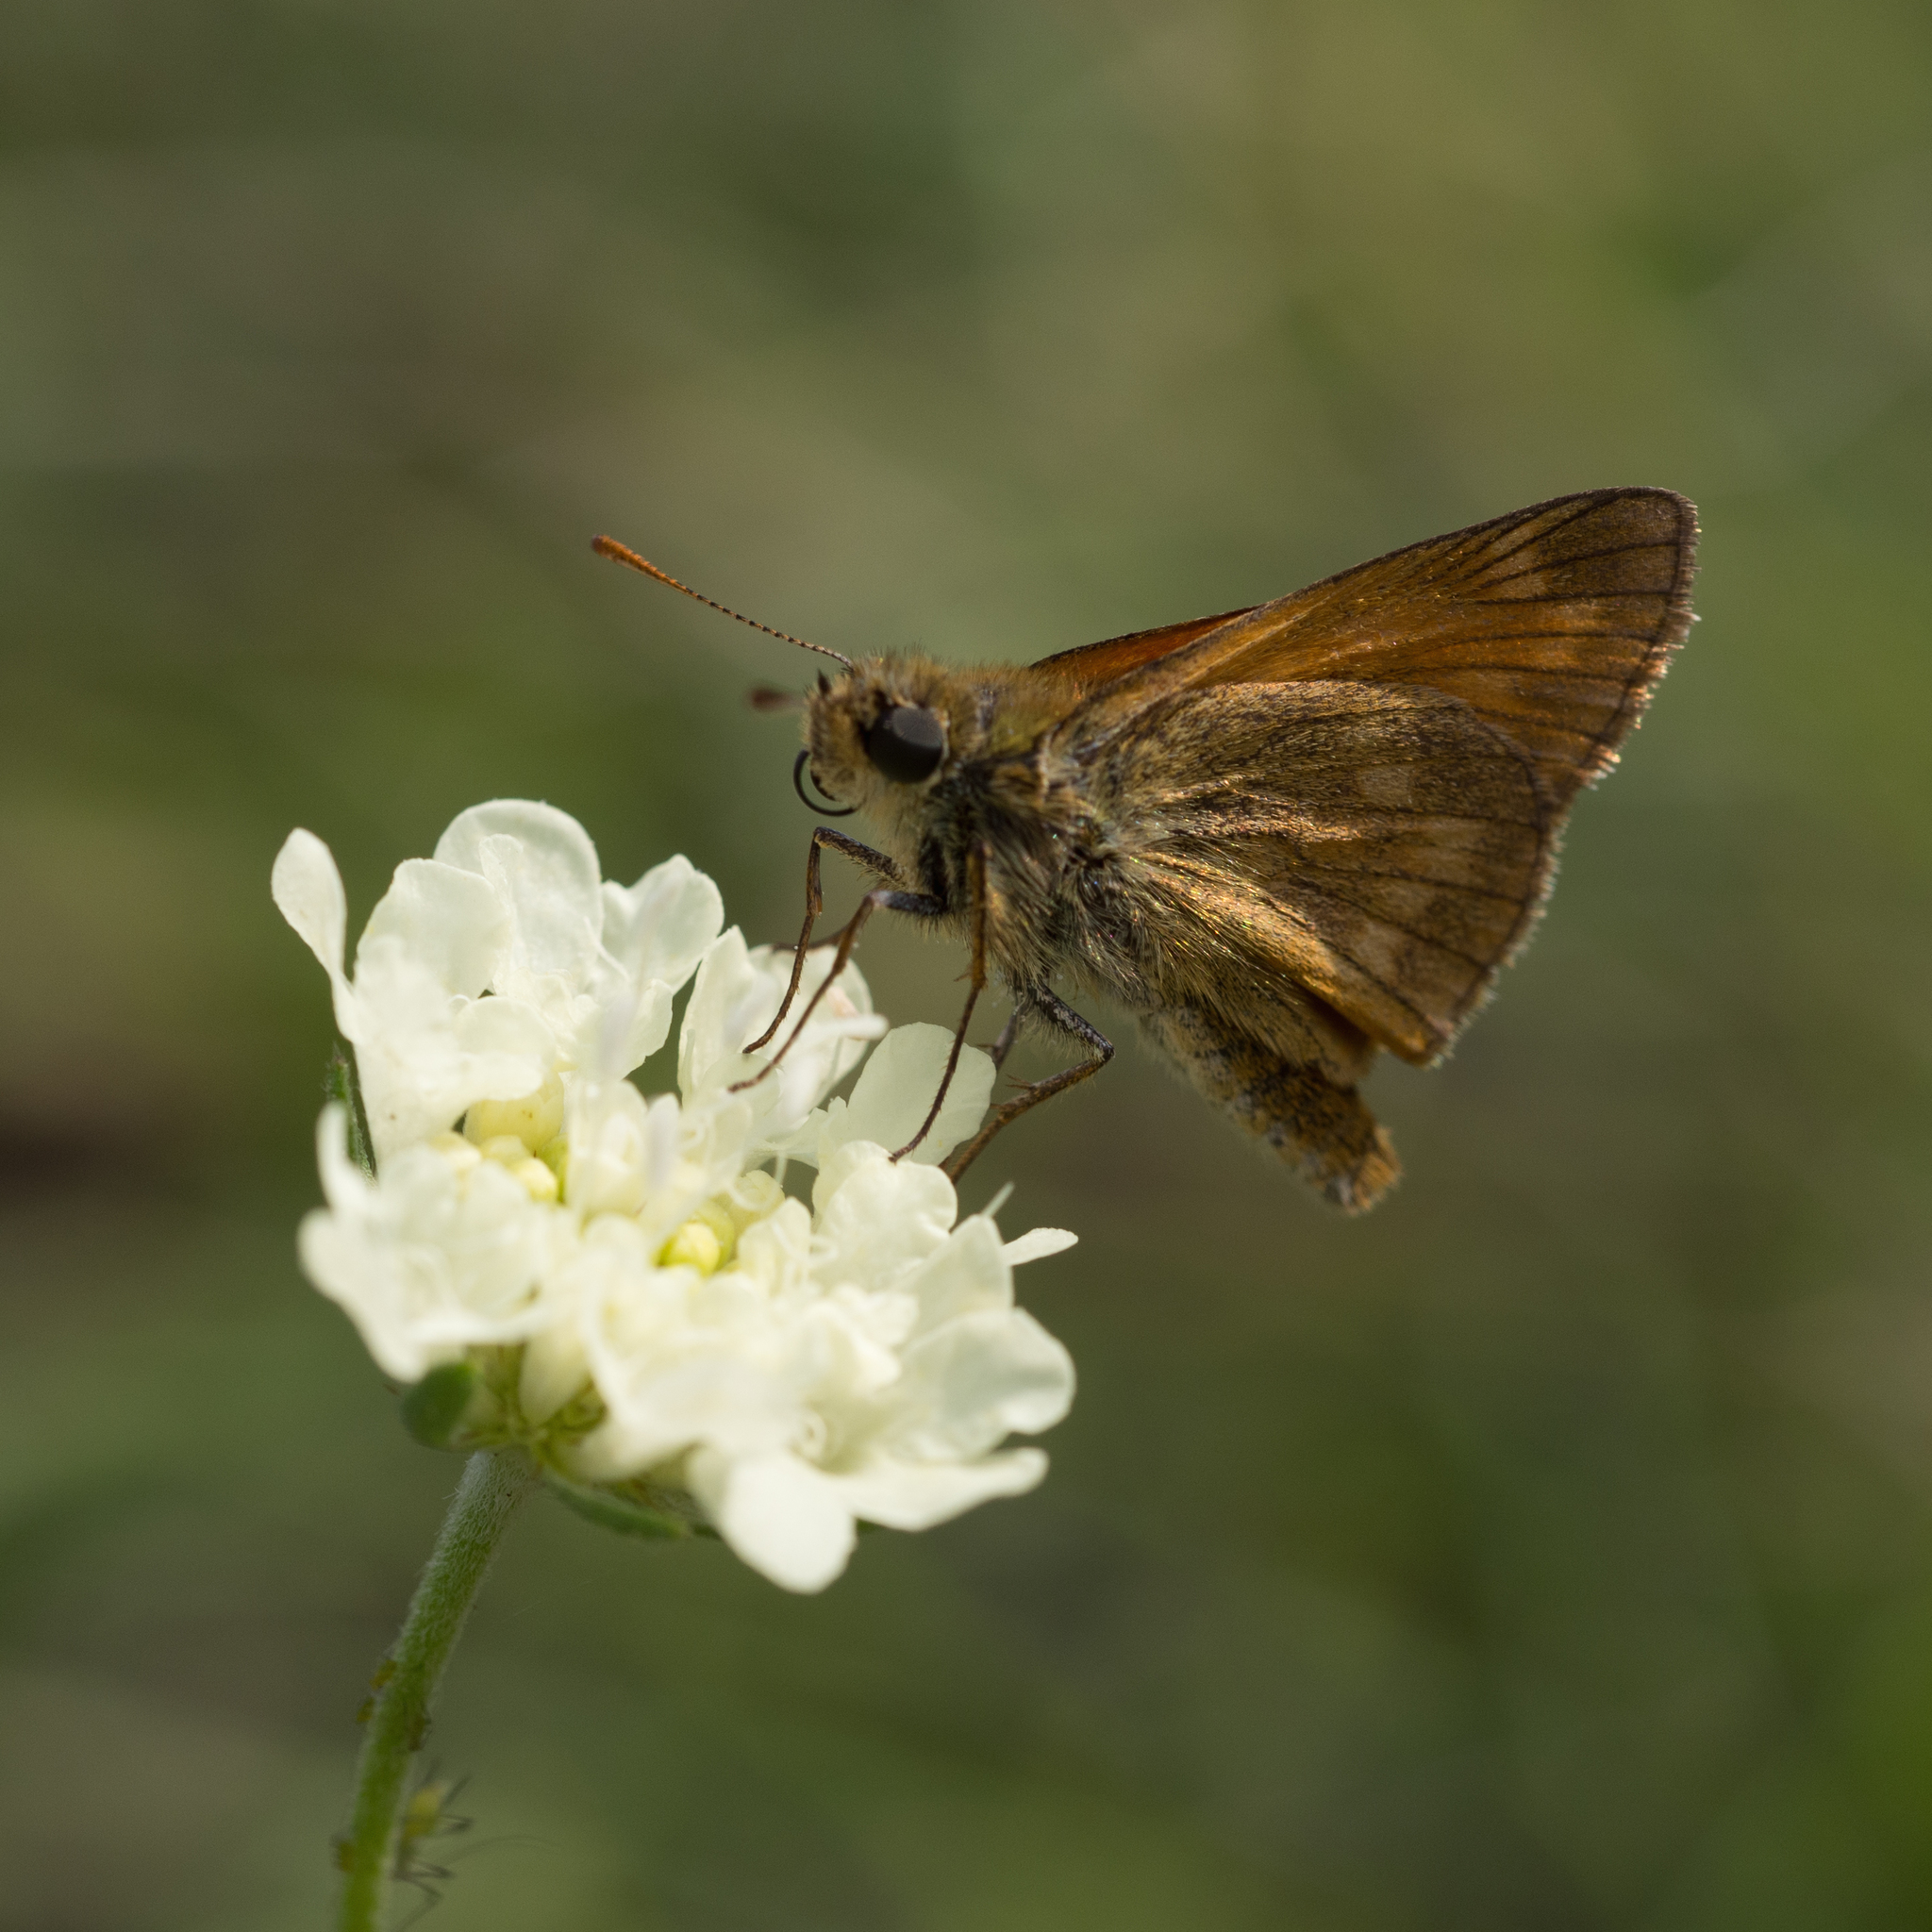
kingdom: Animalia
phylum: Arthropoda
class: Insecta
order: Lepidoptera
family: Hesperiidae
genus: Ochlodes
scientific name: Ochlodes venata
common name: Large skipper
